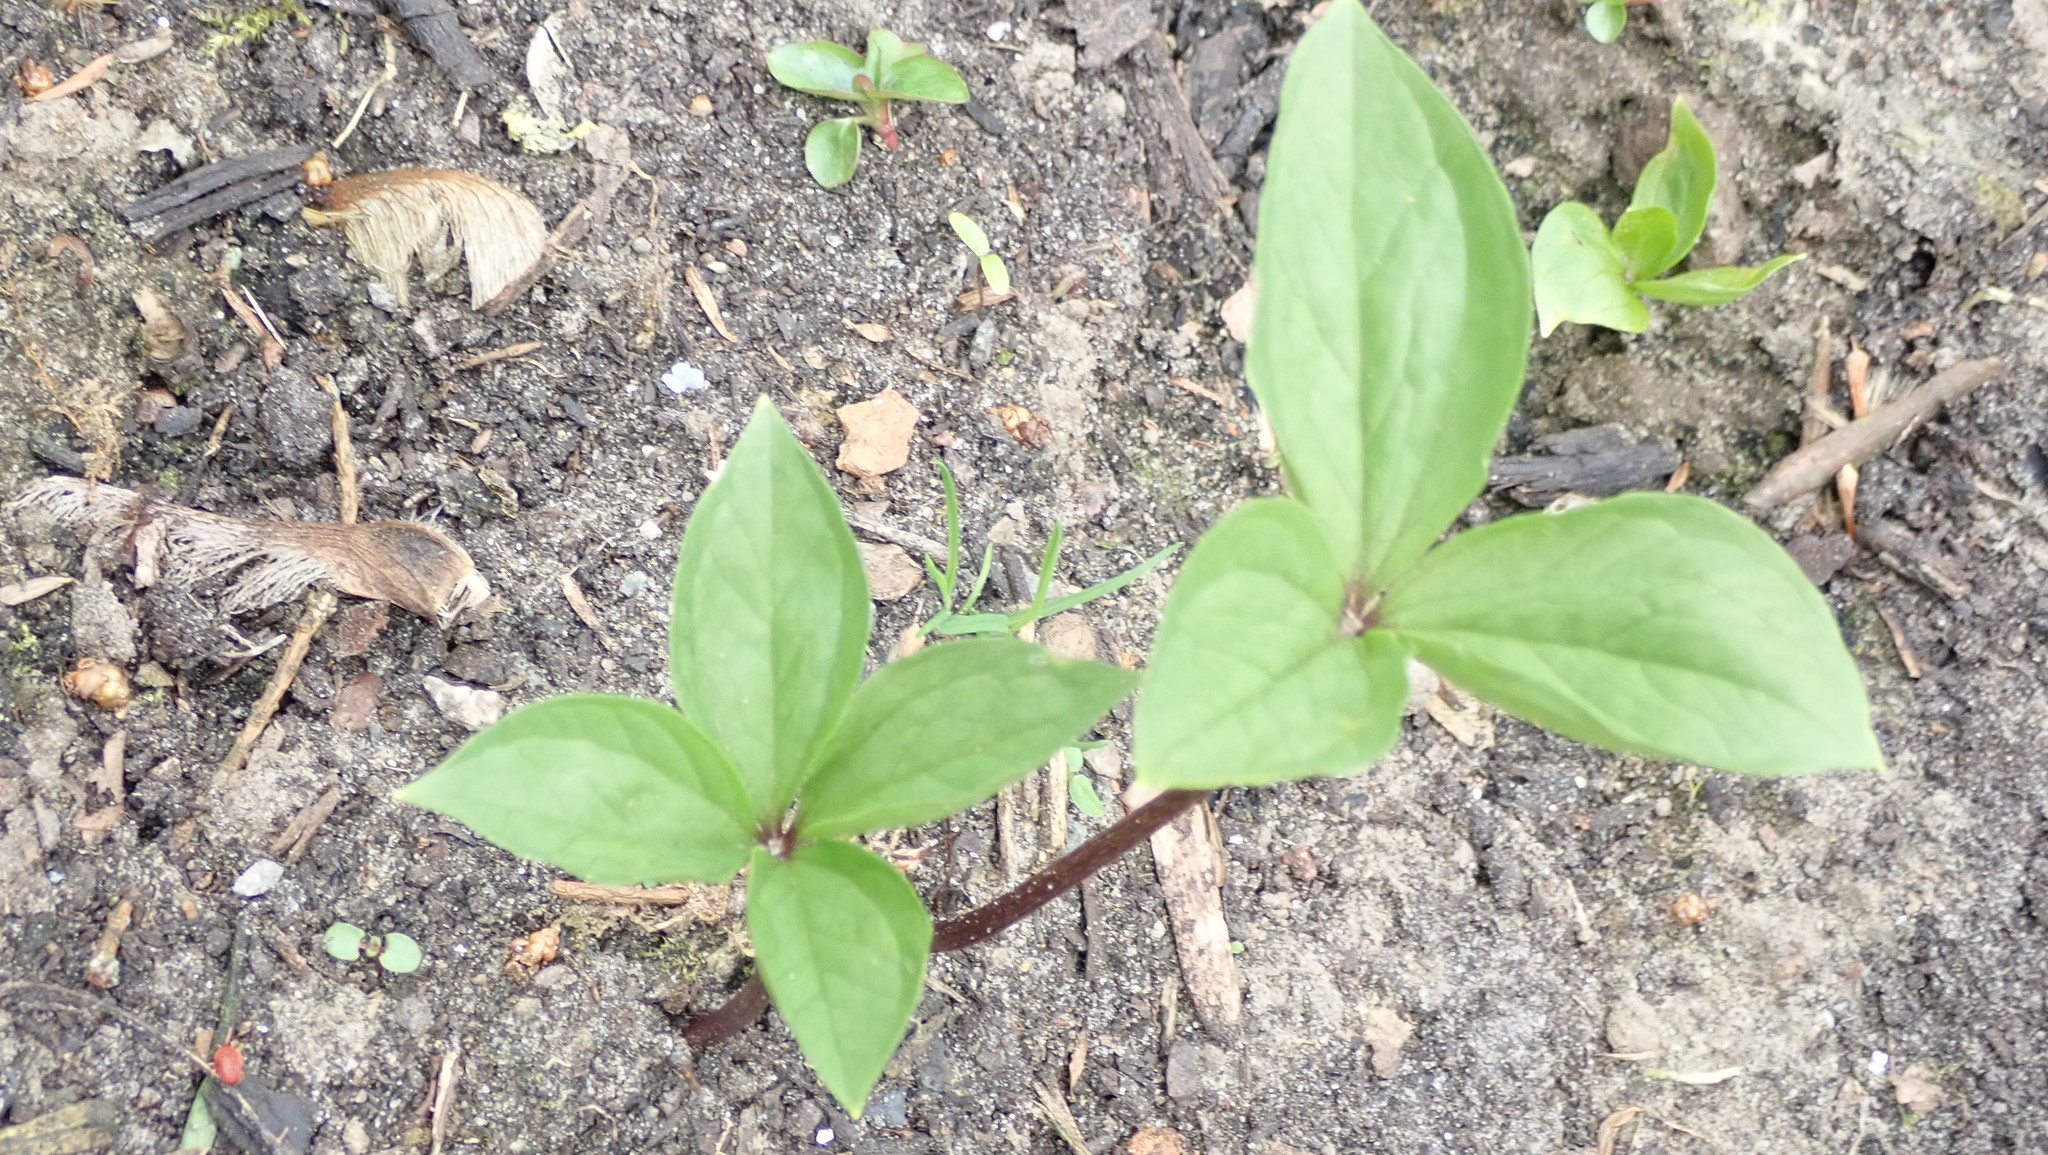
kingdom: Plantae
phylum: Tracheophyta
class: Liliopsida
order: Liliales
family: Melanthiaceae
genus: Paris
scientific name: Paris quadrifolia
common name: Herb-paris
